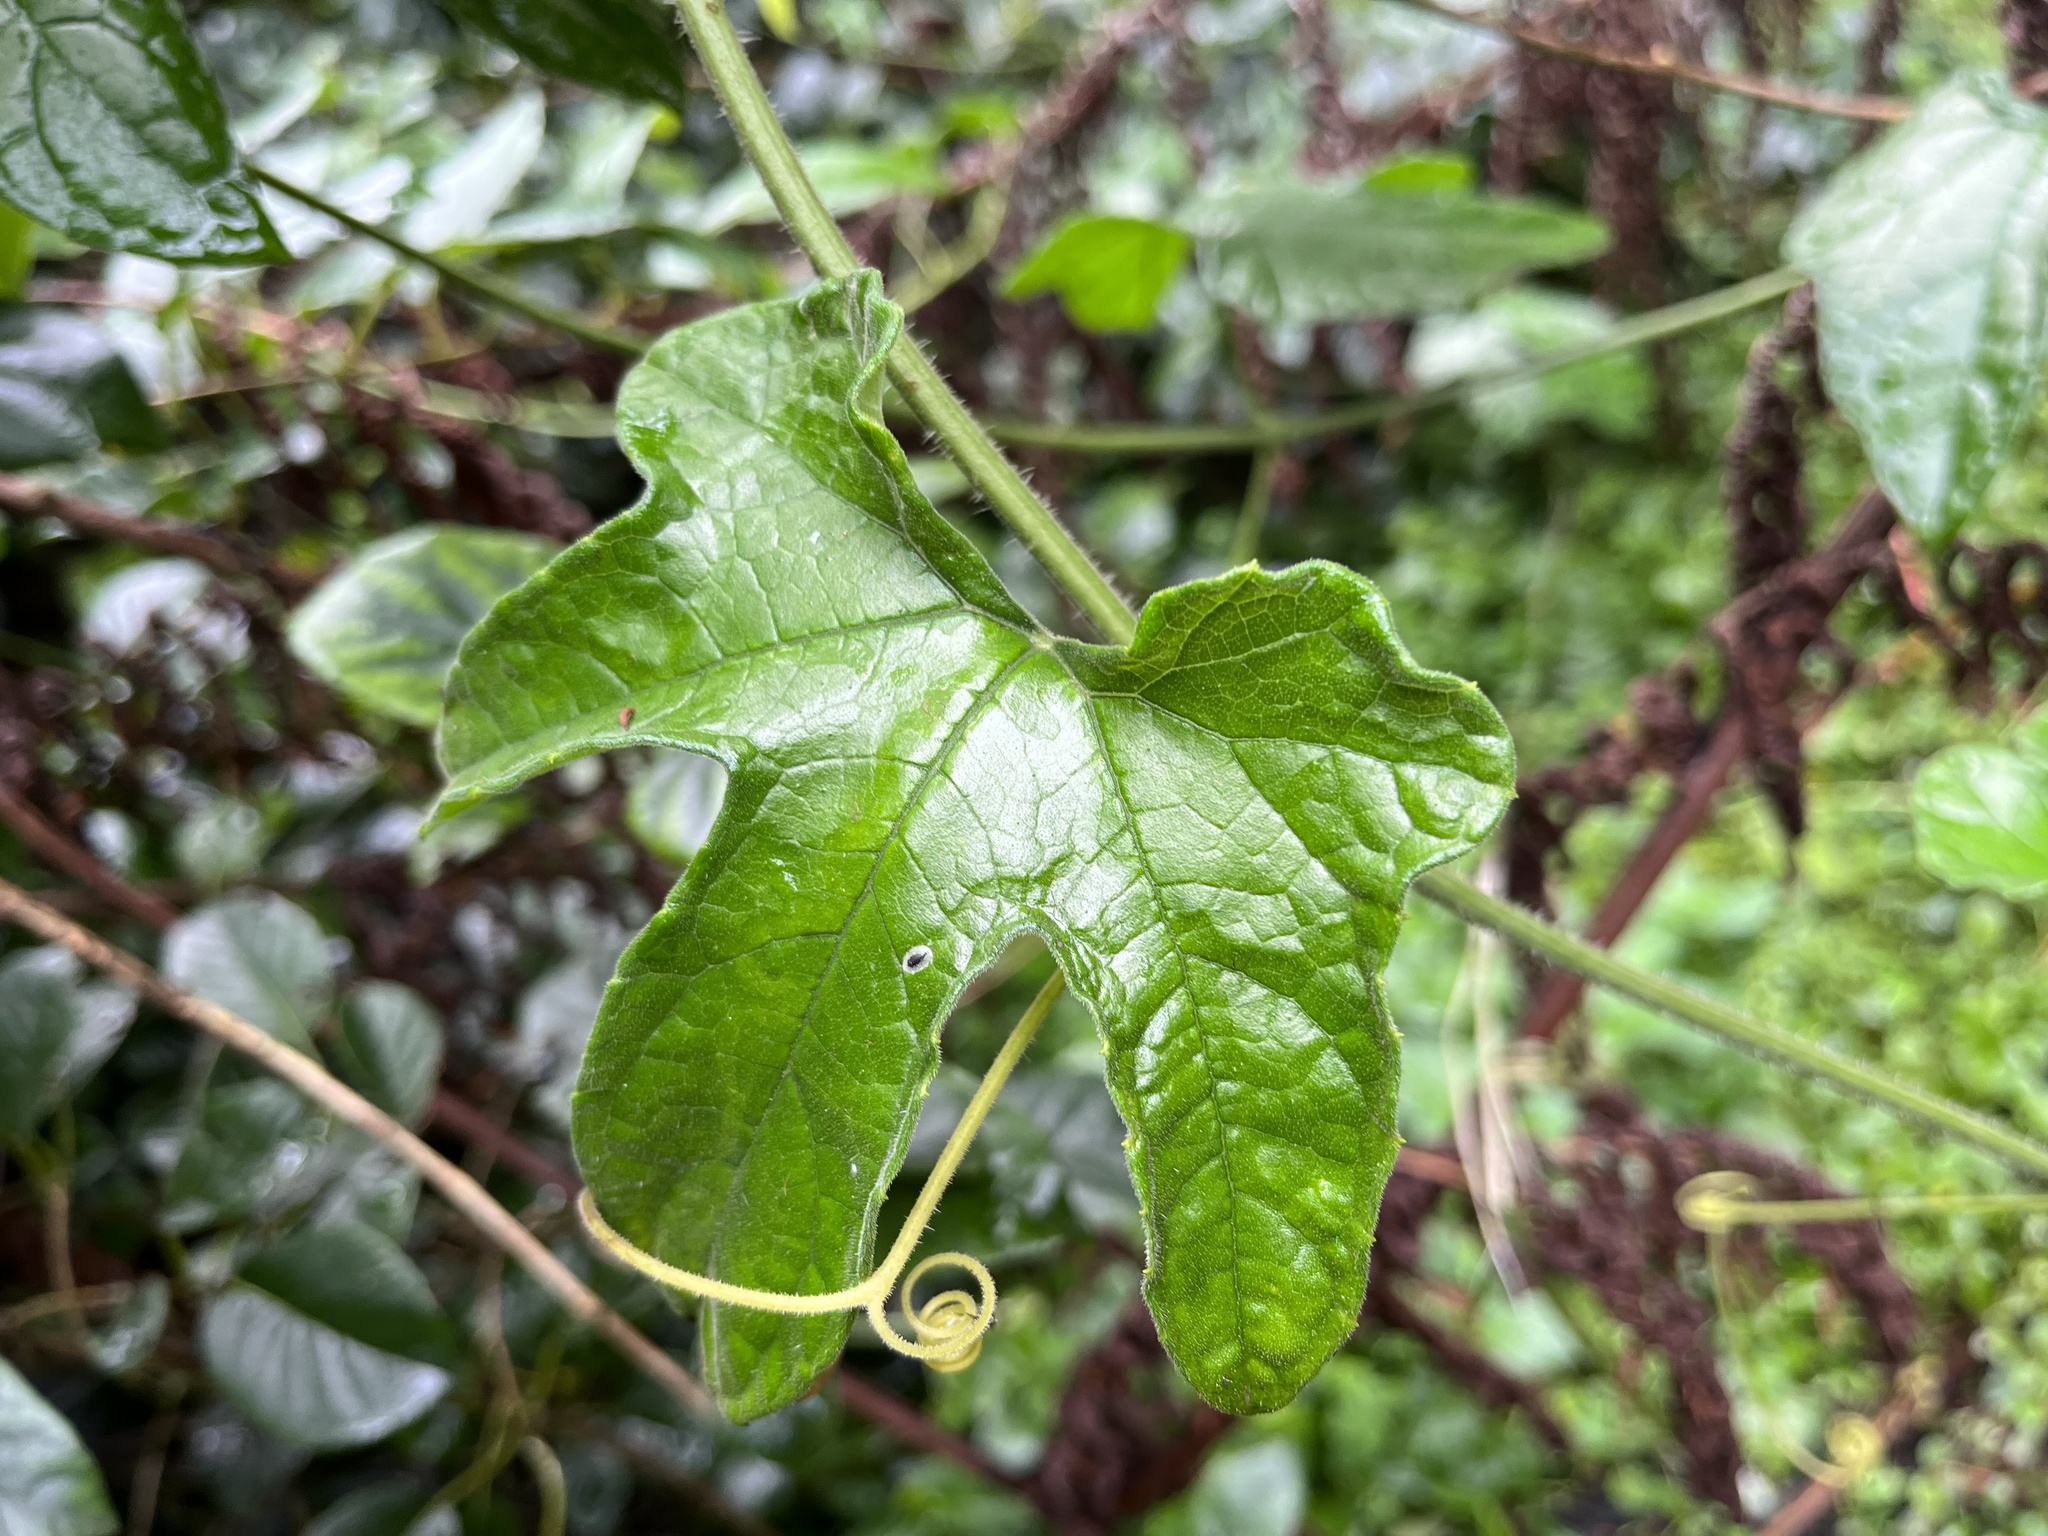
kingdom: Plantae
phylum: Tracheophyta
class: Magnoliopsida
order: Cucurbitales
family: Cucurbitaceae
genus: Diplocyclos
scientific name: Diplocyclos palmatus
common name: Striped-cucumber
